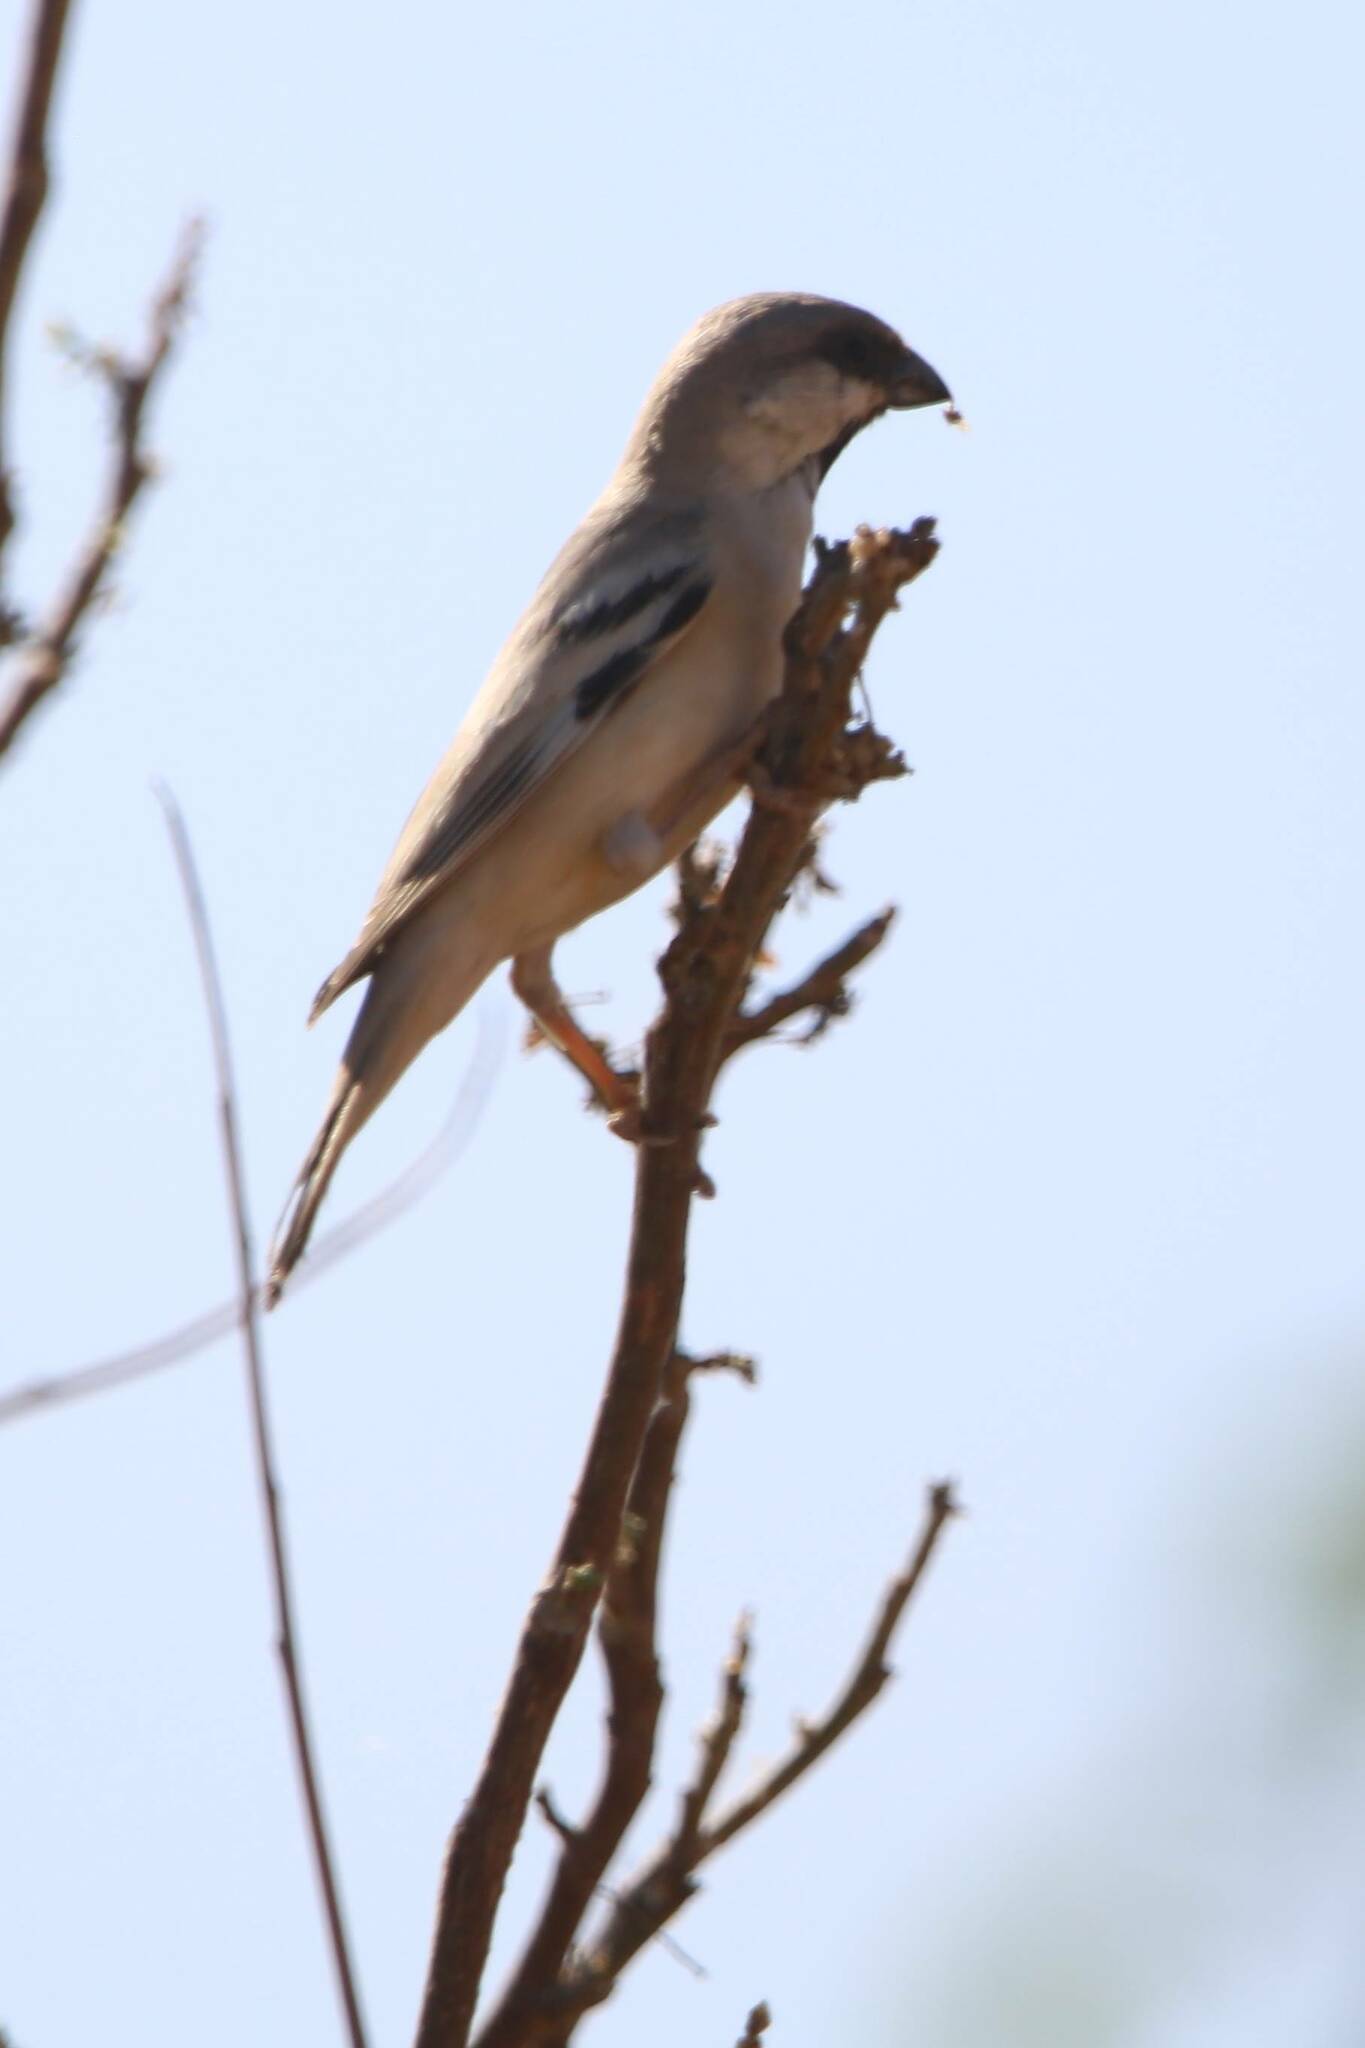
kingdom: Animalia
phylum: Chordata
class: Aves
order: Passeriformes
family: Passeridae
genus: Passer
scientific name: Passer simplex
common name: Desert sparrow
